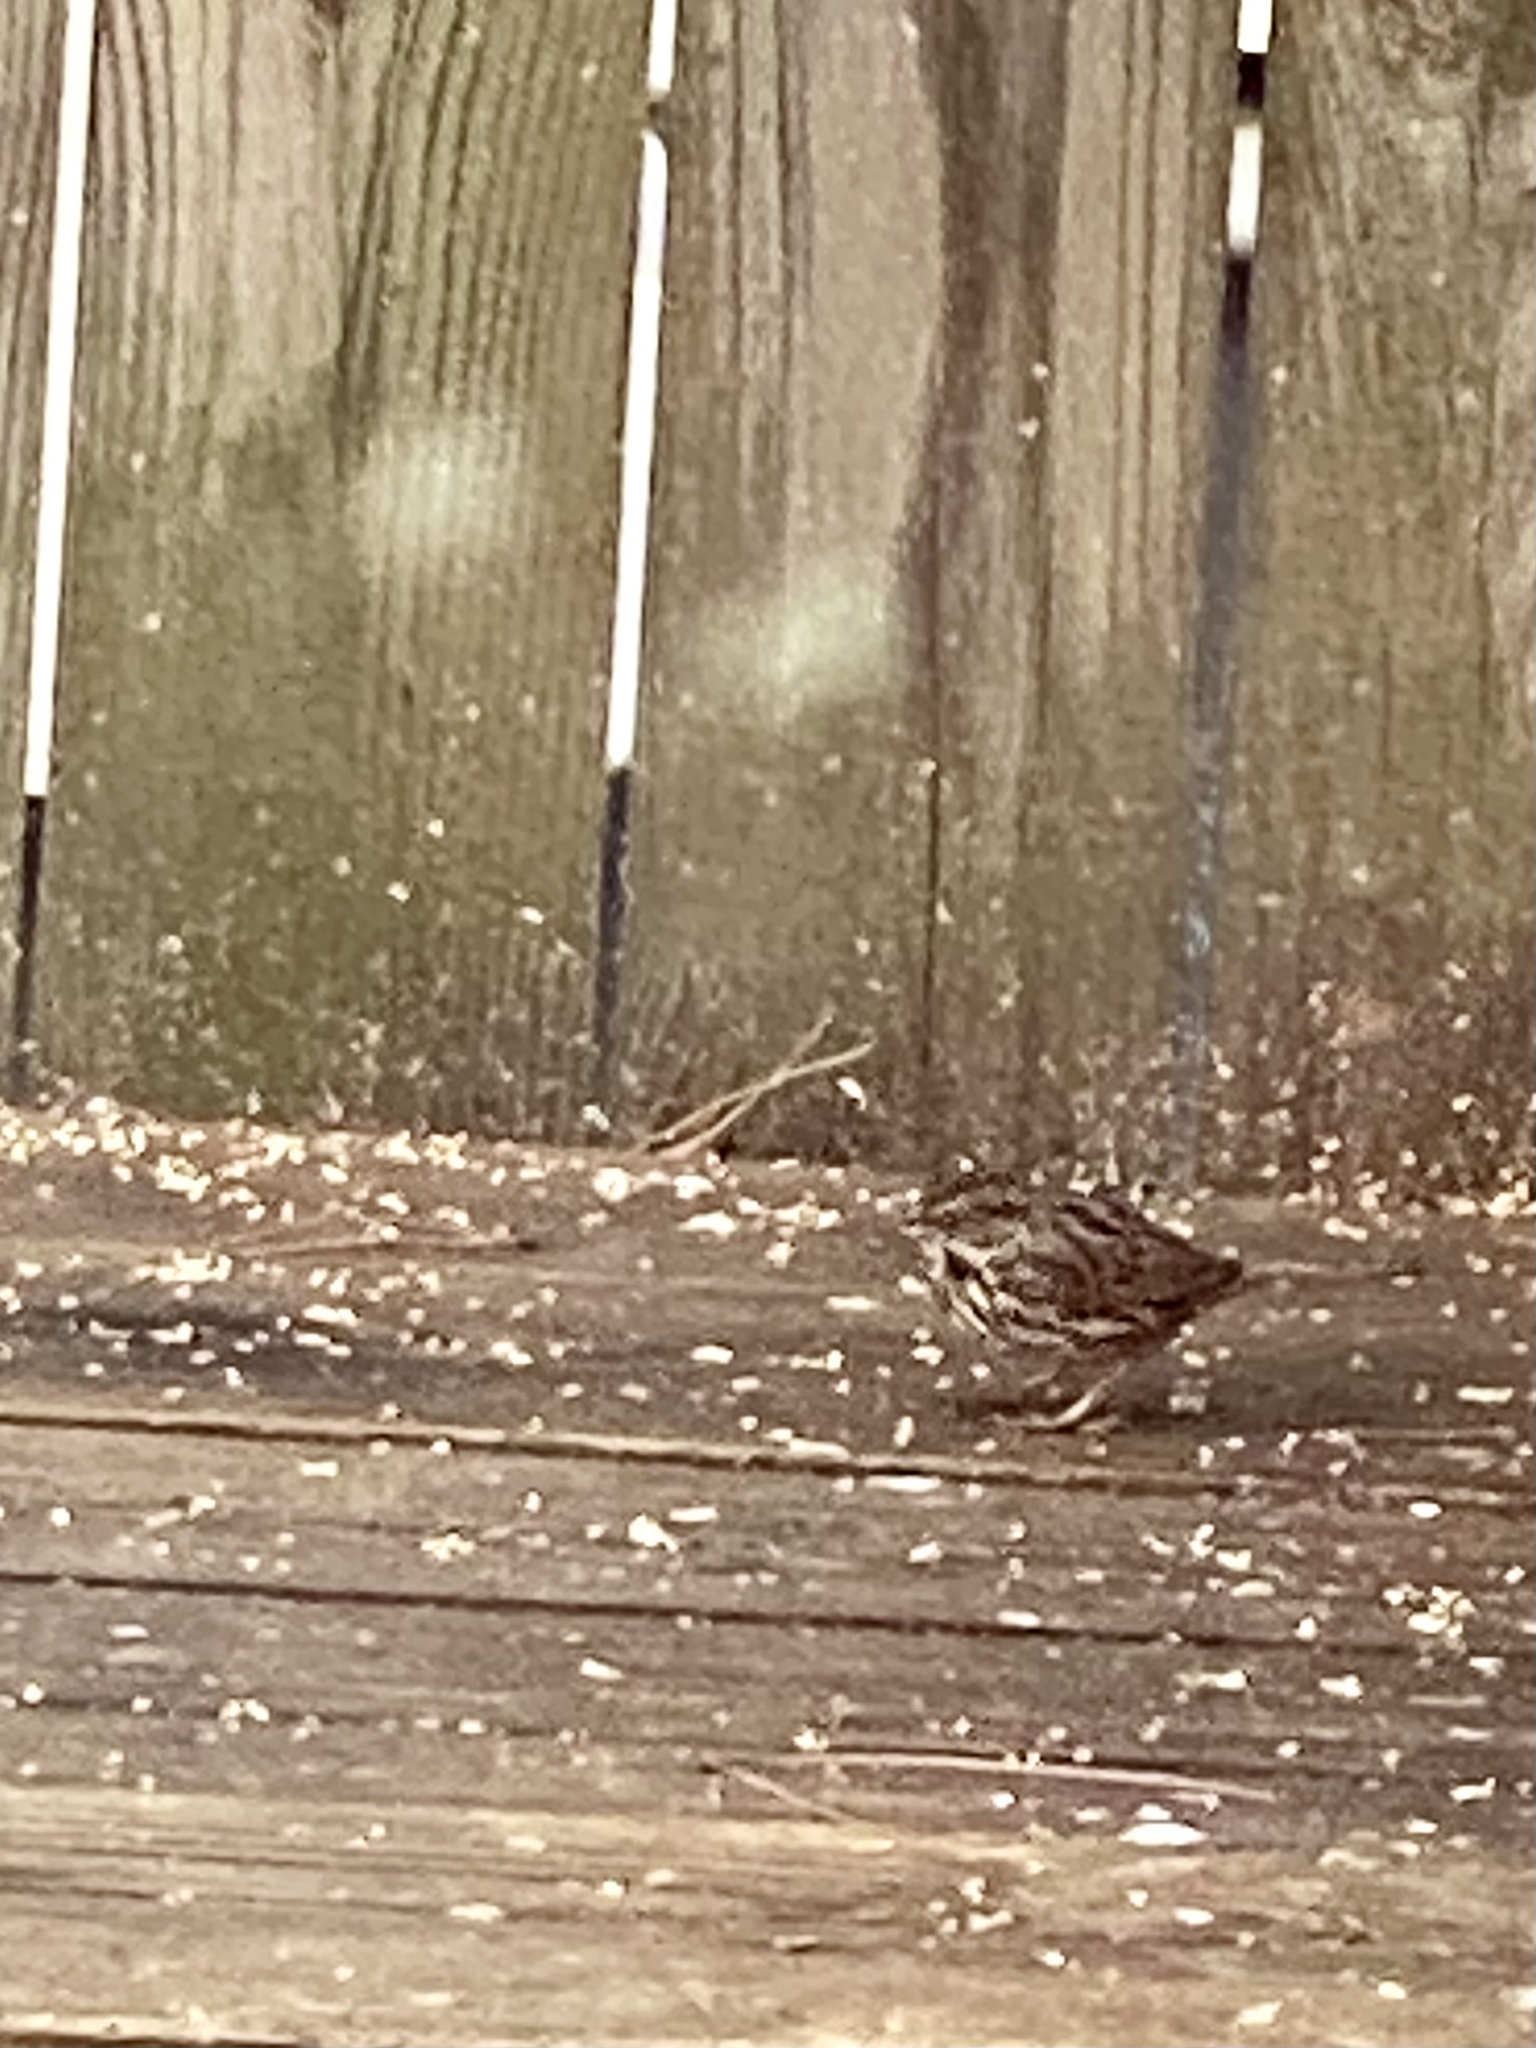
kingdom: Animalia
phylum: Chordata
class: Aves
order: Passeriformes
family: Passerellidae
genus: Melospiza
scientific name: Melospiza melodia
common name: Song sparrow
